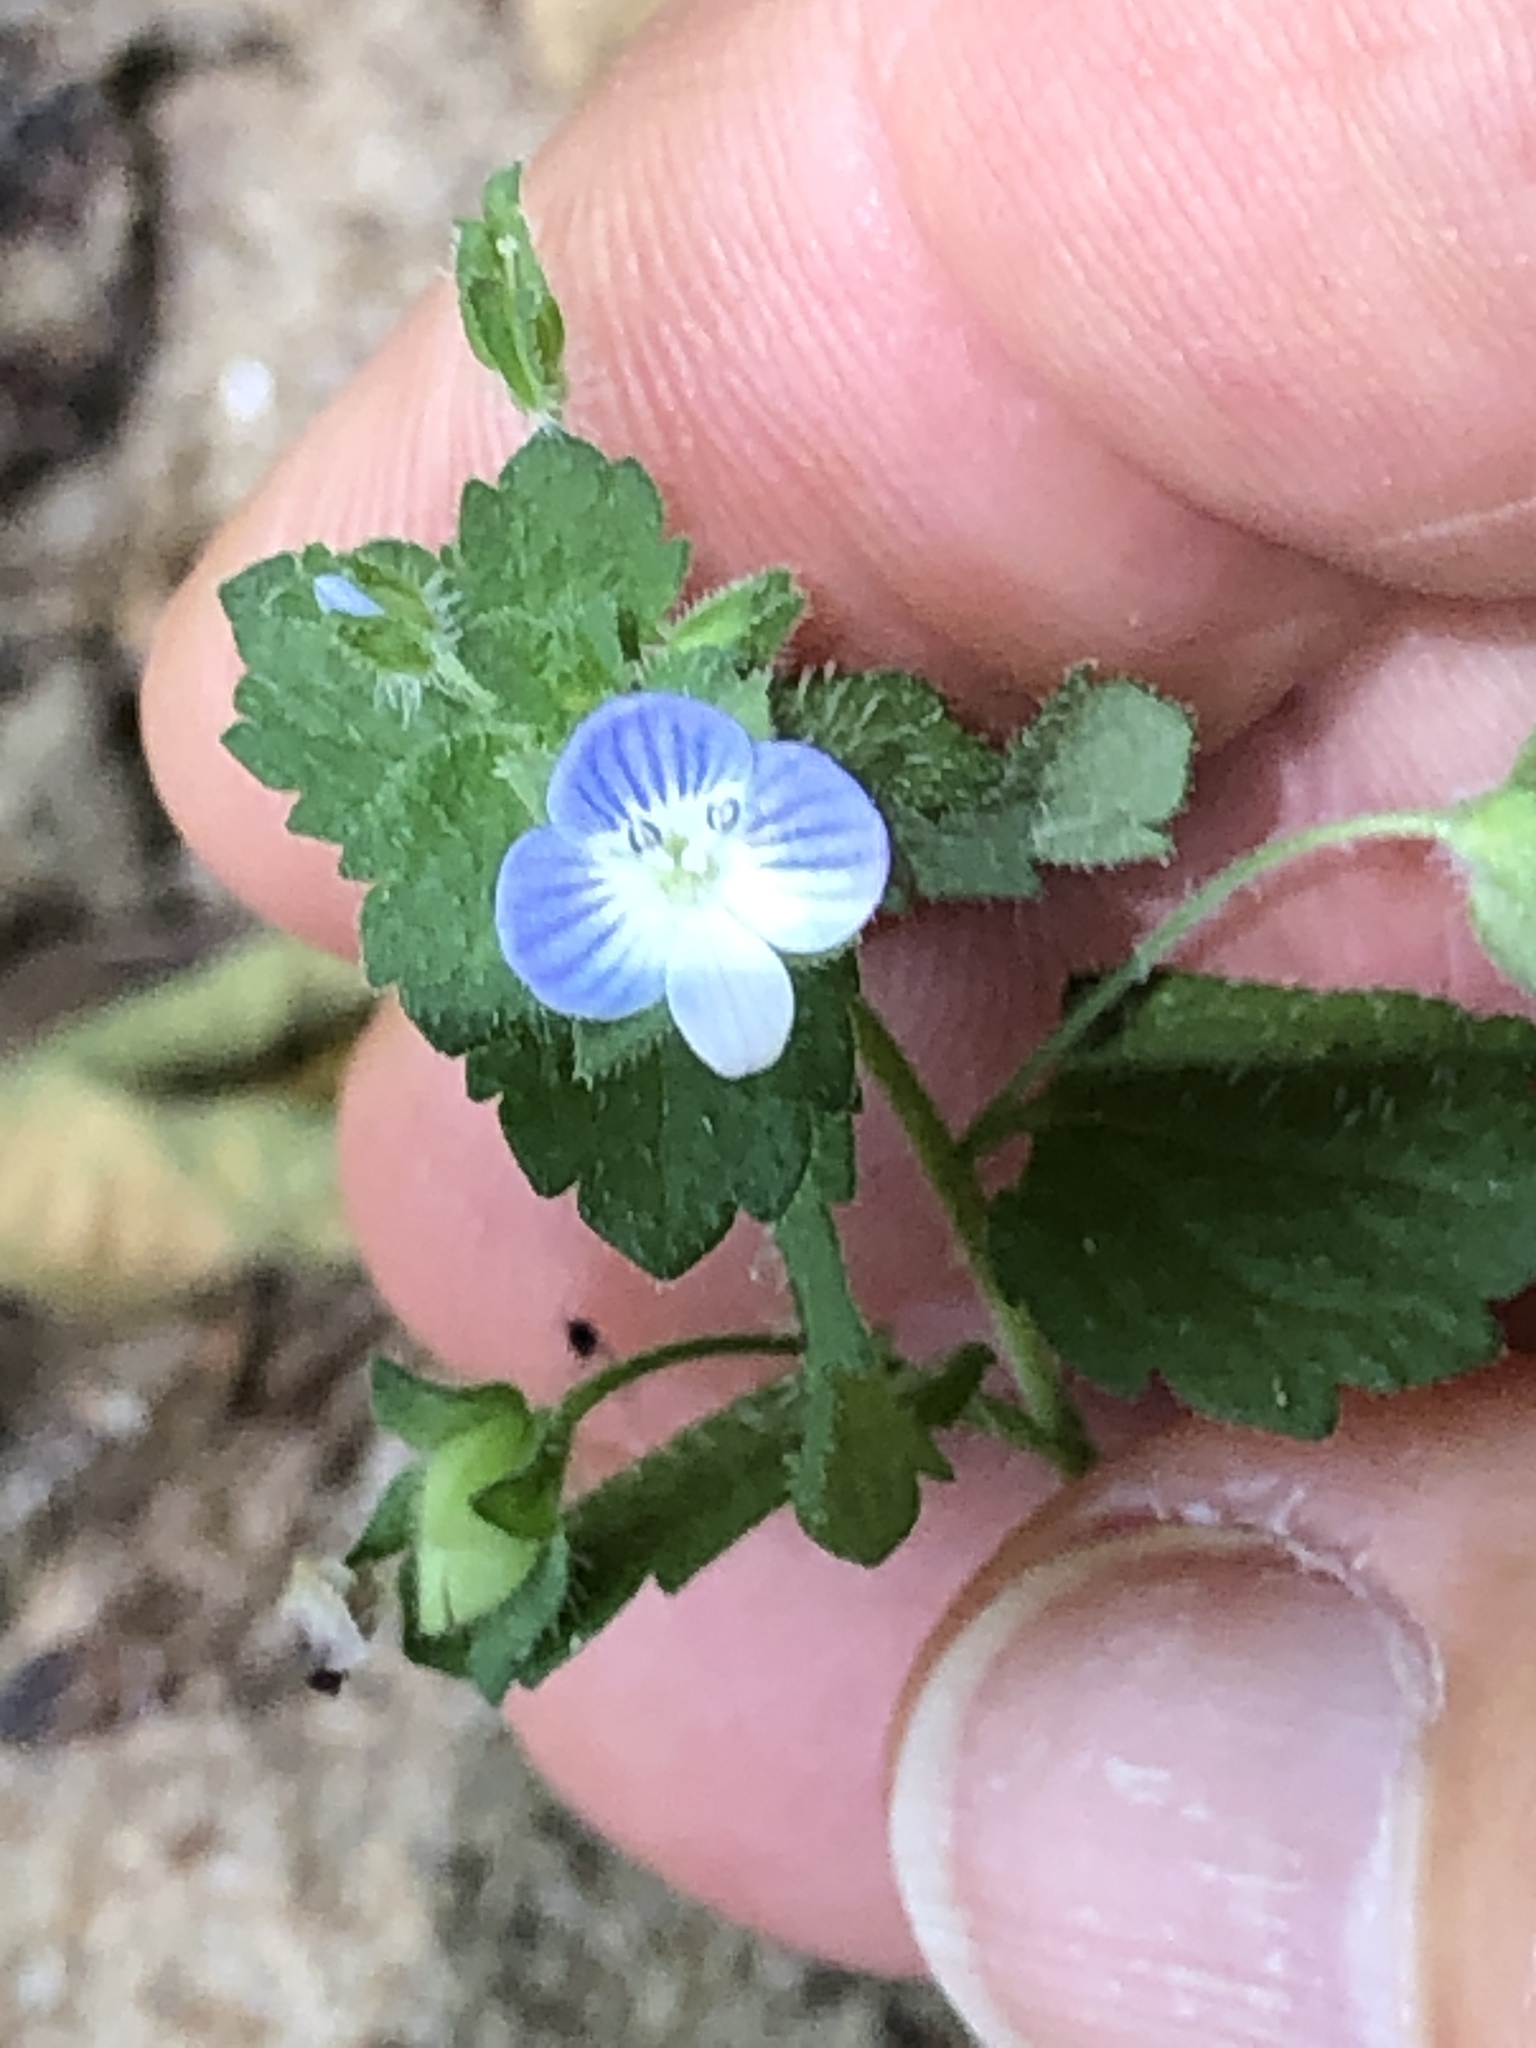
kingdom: Plantae
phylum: Tracheophyta
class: Magnoliopsida
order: Lamiales
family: Plantaginaceae
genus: Veronica
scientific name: Veronica persica
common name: Common field-speedwell
